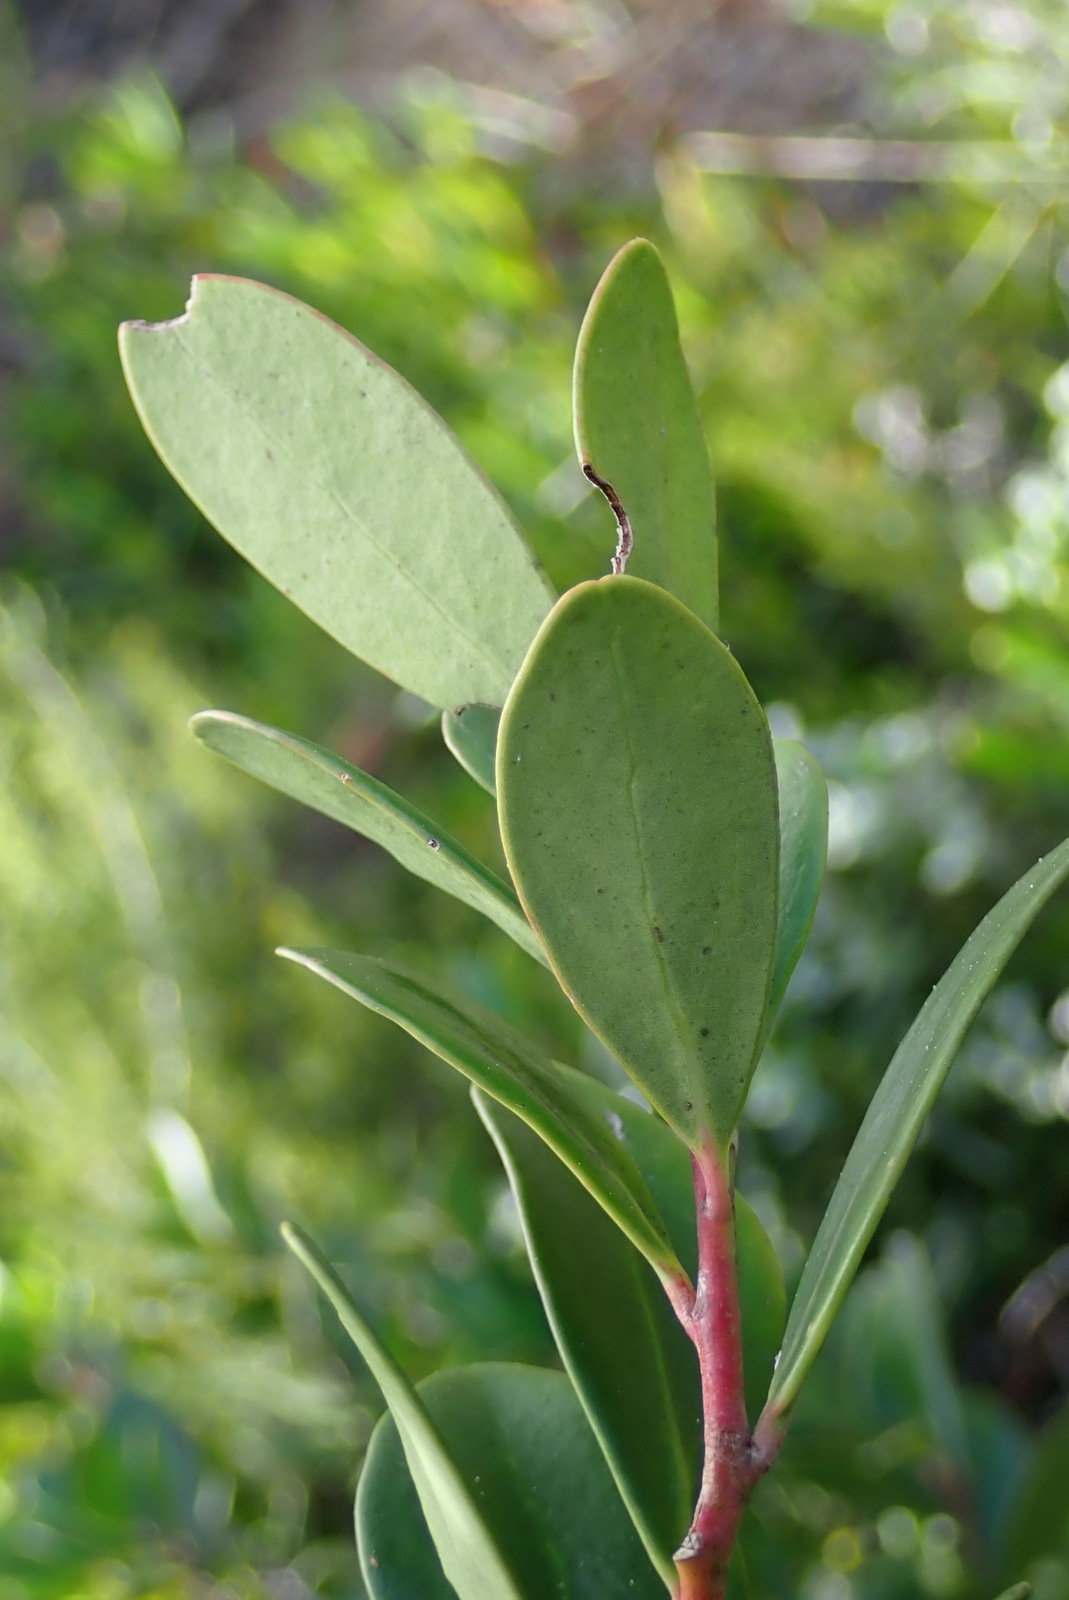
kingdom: Plantae
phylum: Tracheophyta
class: Magnoliopsida
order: Celastrales
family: Celastraceae
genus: Pterocelastrus
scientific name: Pterocelastrus tricuspidatus
